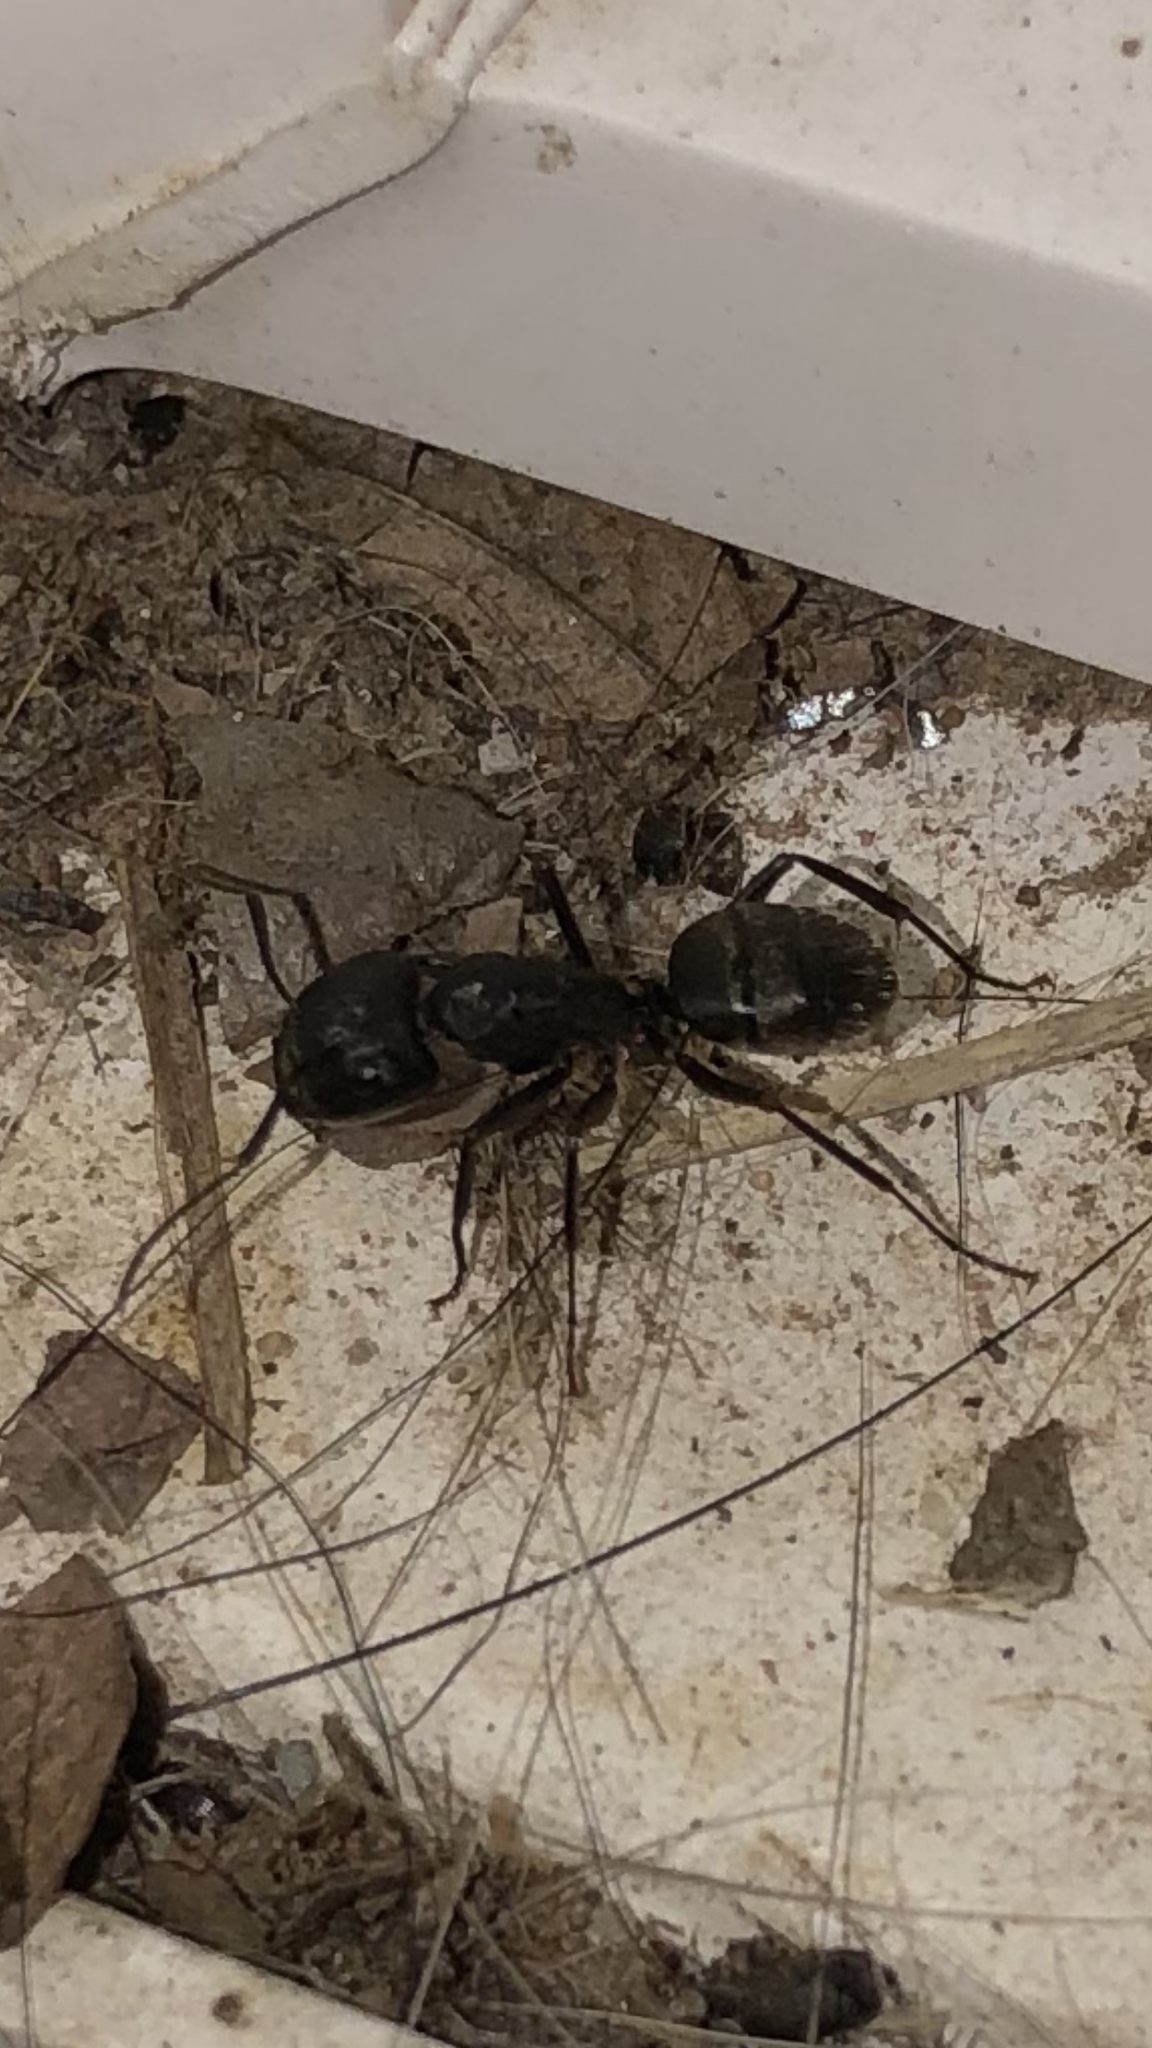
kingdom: Animalia
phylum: Arthropoda
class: Insecta
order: Hymenoptera
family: Formicidae
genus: Camponotus
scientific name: Camponotus pennsylvanicus
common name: Black carpenter ant
